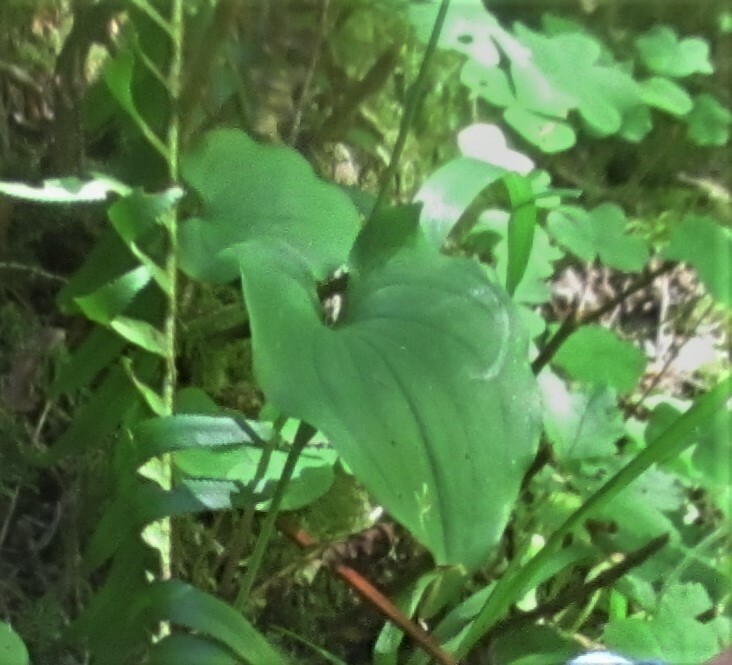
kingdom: Plantae
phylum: Tracheophyta
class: Liliopsida
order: Asparagales
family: Asparagaceae
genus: Maianthemum
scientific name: Maianthemum dilatatum
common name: False lily-of-the-valley
